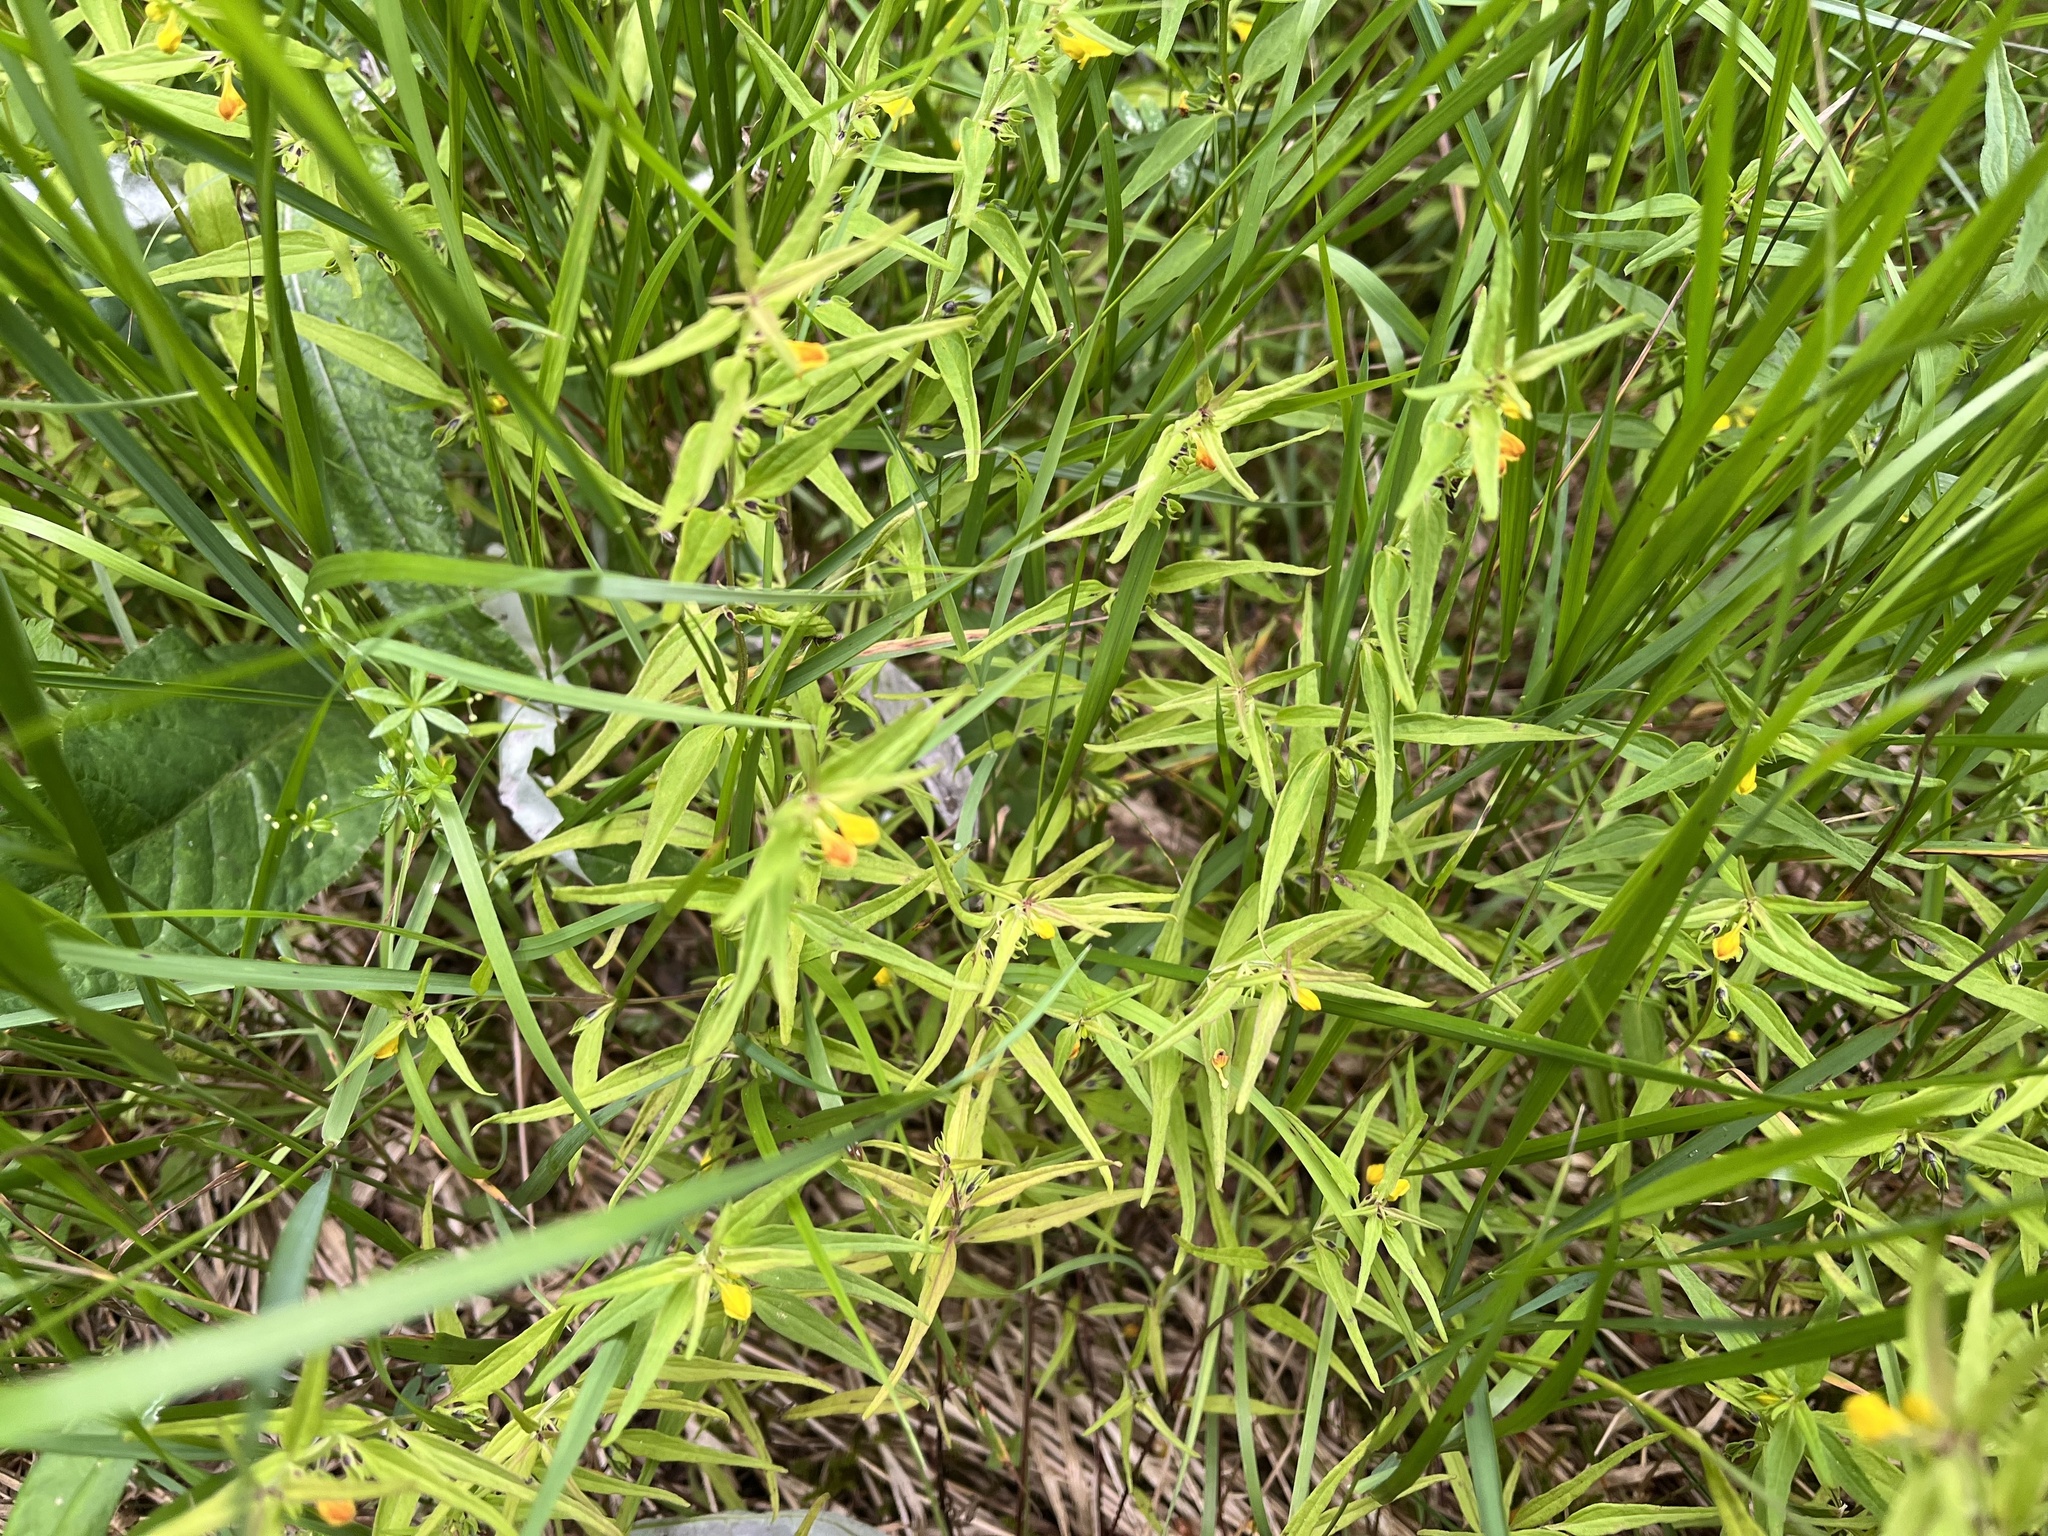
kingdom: Plantae
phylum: Tracheophyta
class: Magnoliopsida
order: Lamiales
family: Orobanchaceae
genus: Melampyrum
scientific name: Melampyrum sylvaticum
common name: Small cow-wheat
